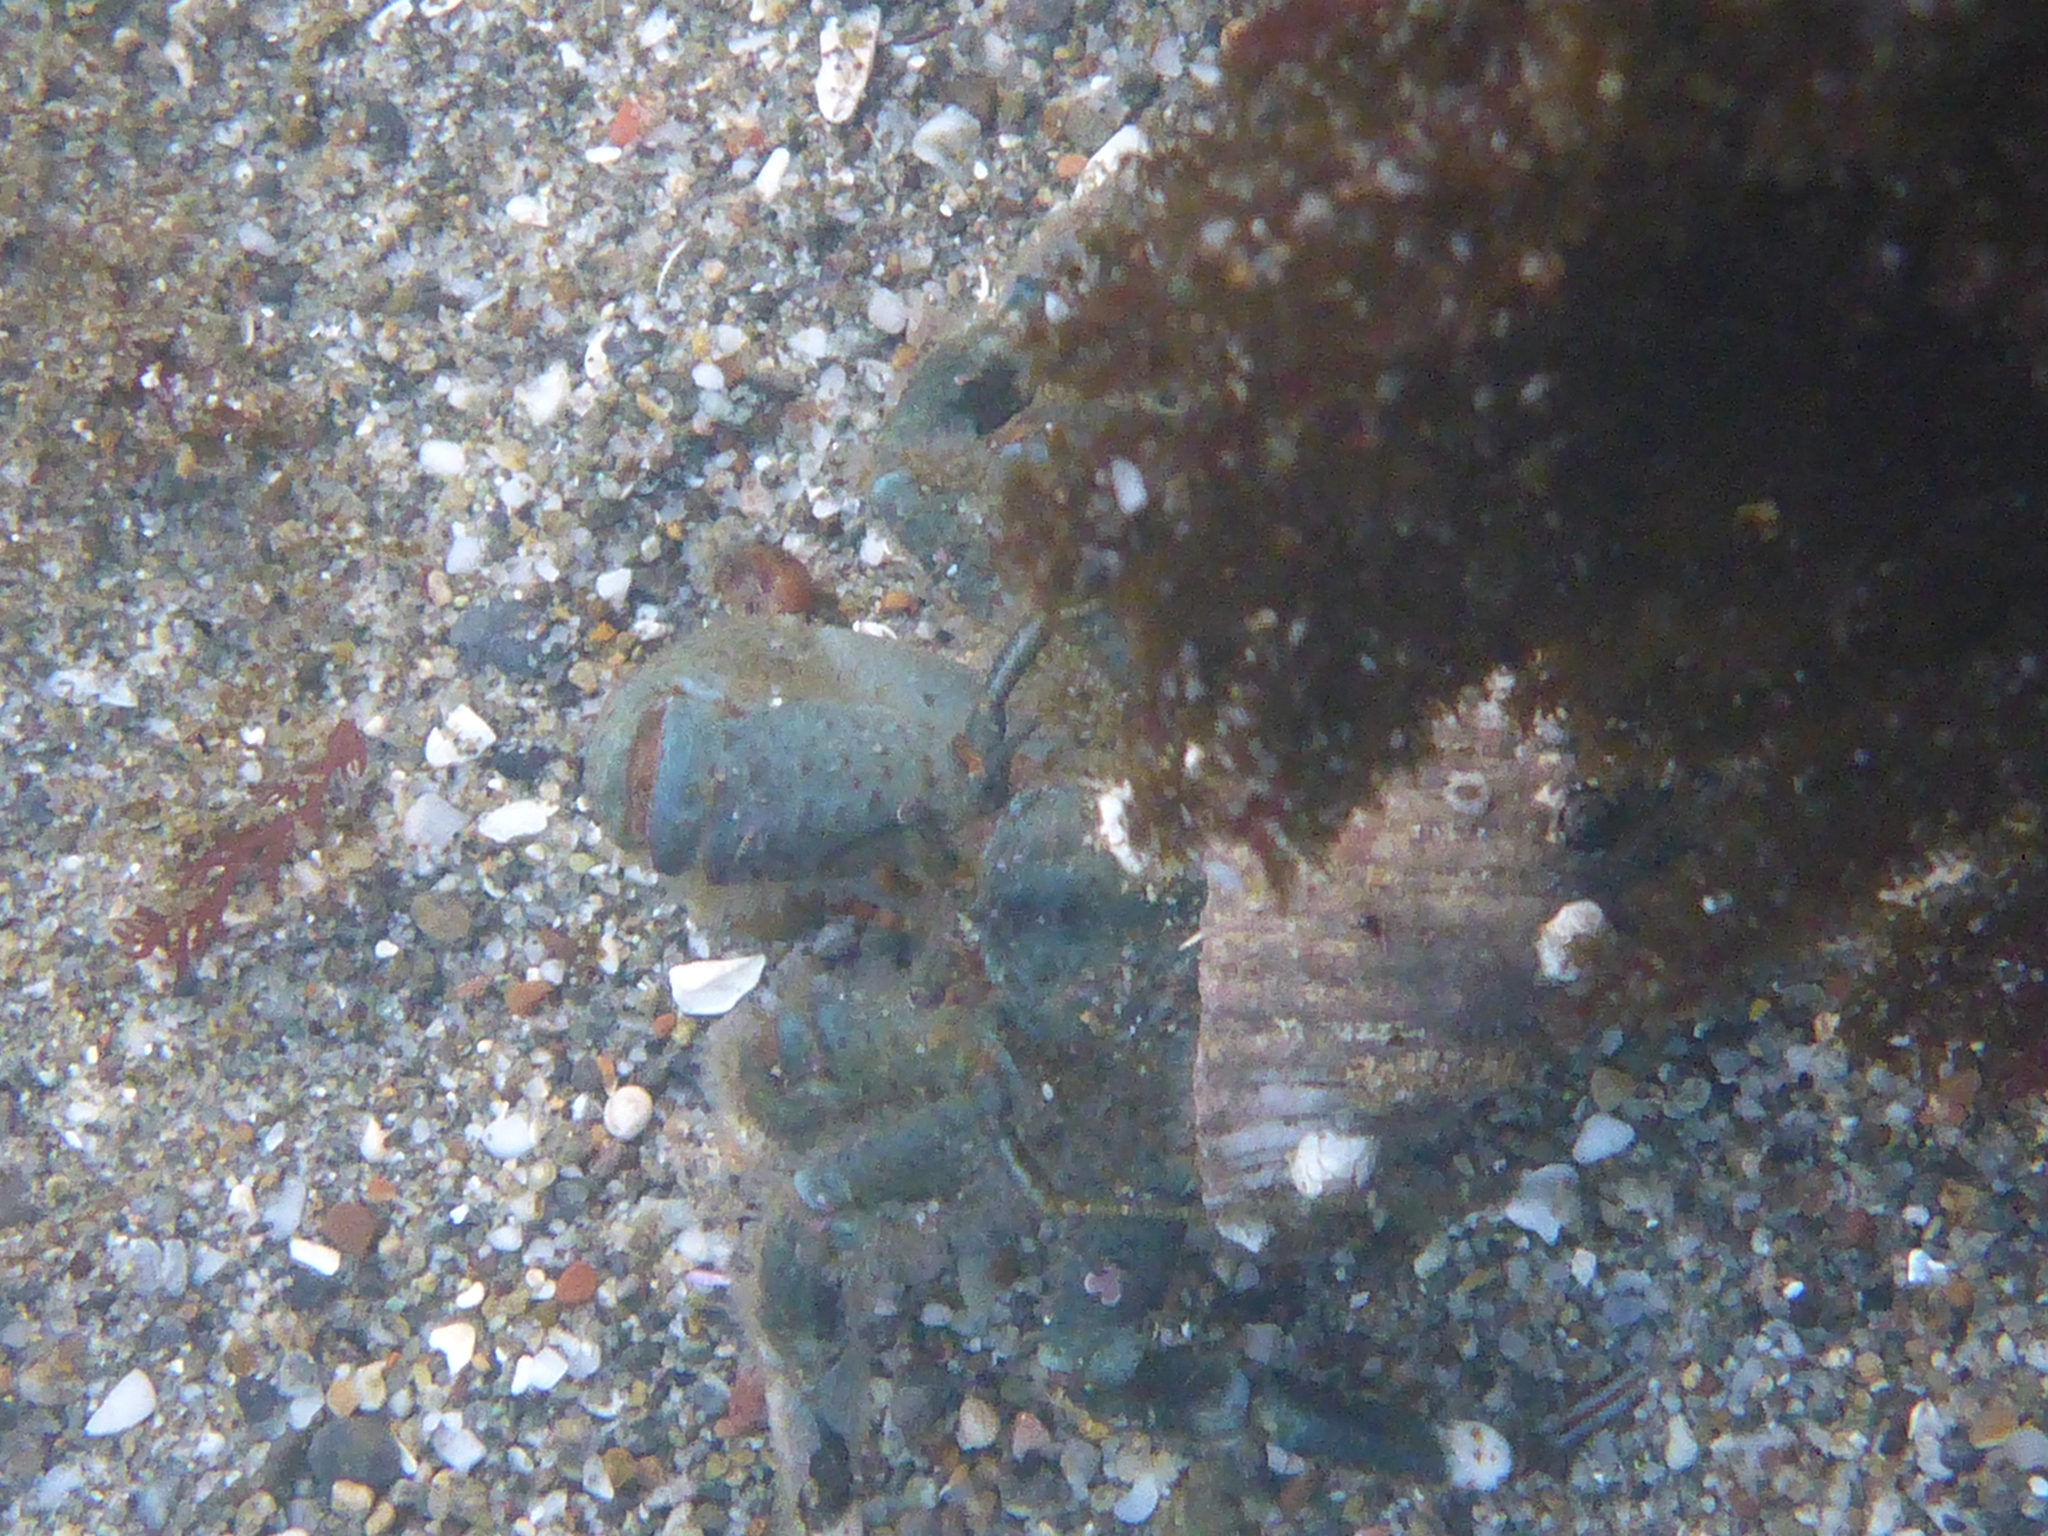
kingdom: Animalia
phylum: Arthropoda
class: Malacostraca
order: Decapoda
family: Paguridae
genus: Pagurus
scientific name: Pagurus hirsutiusculus
